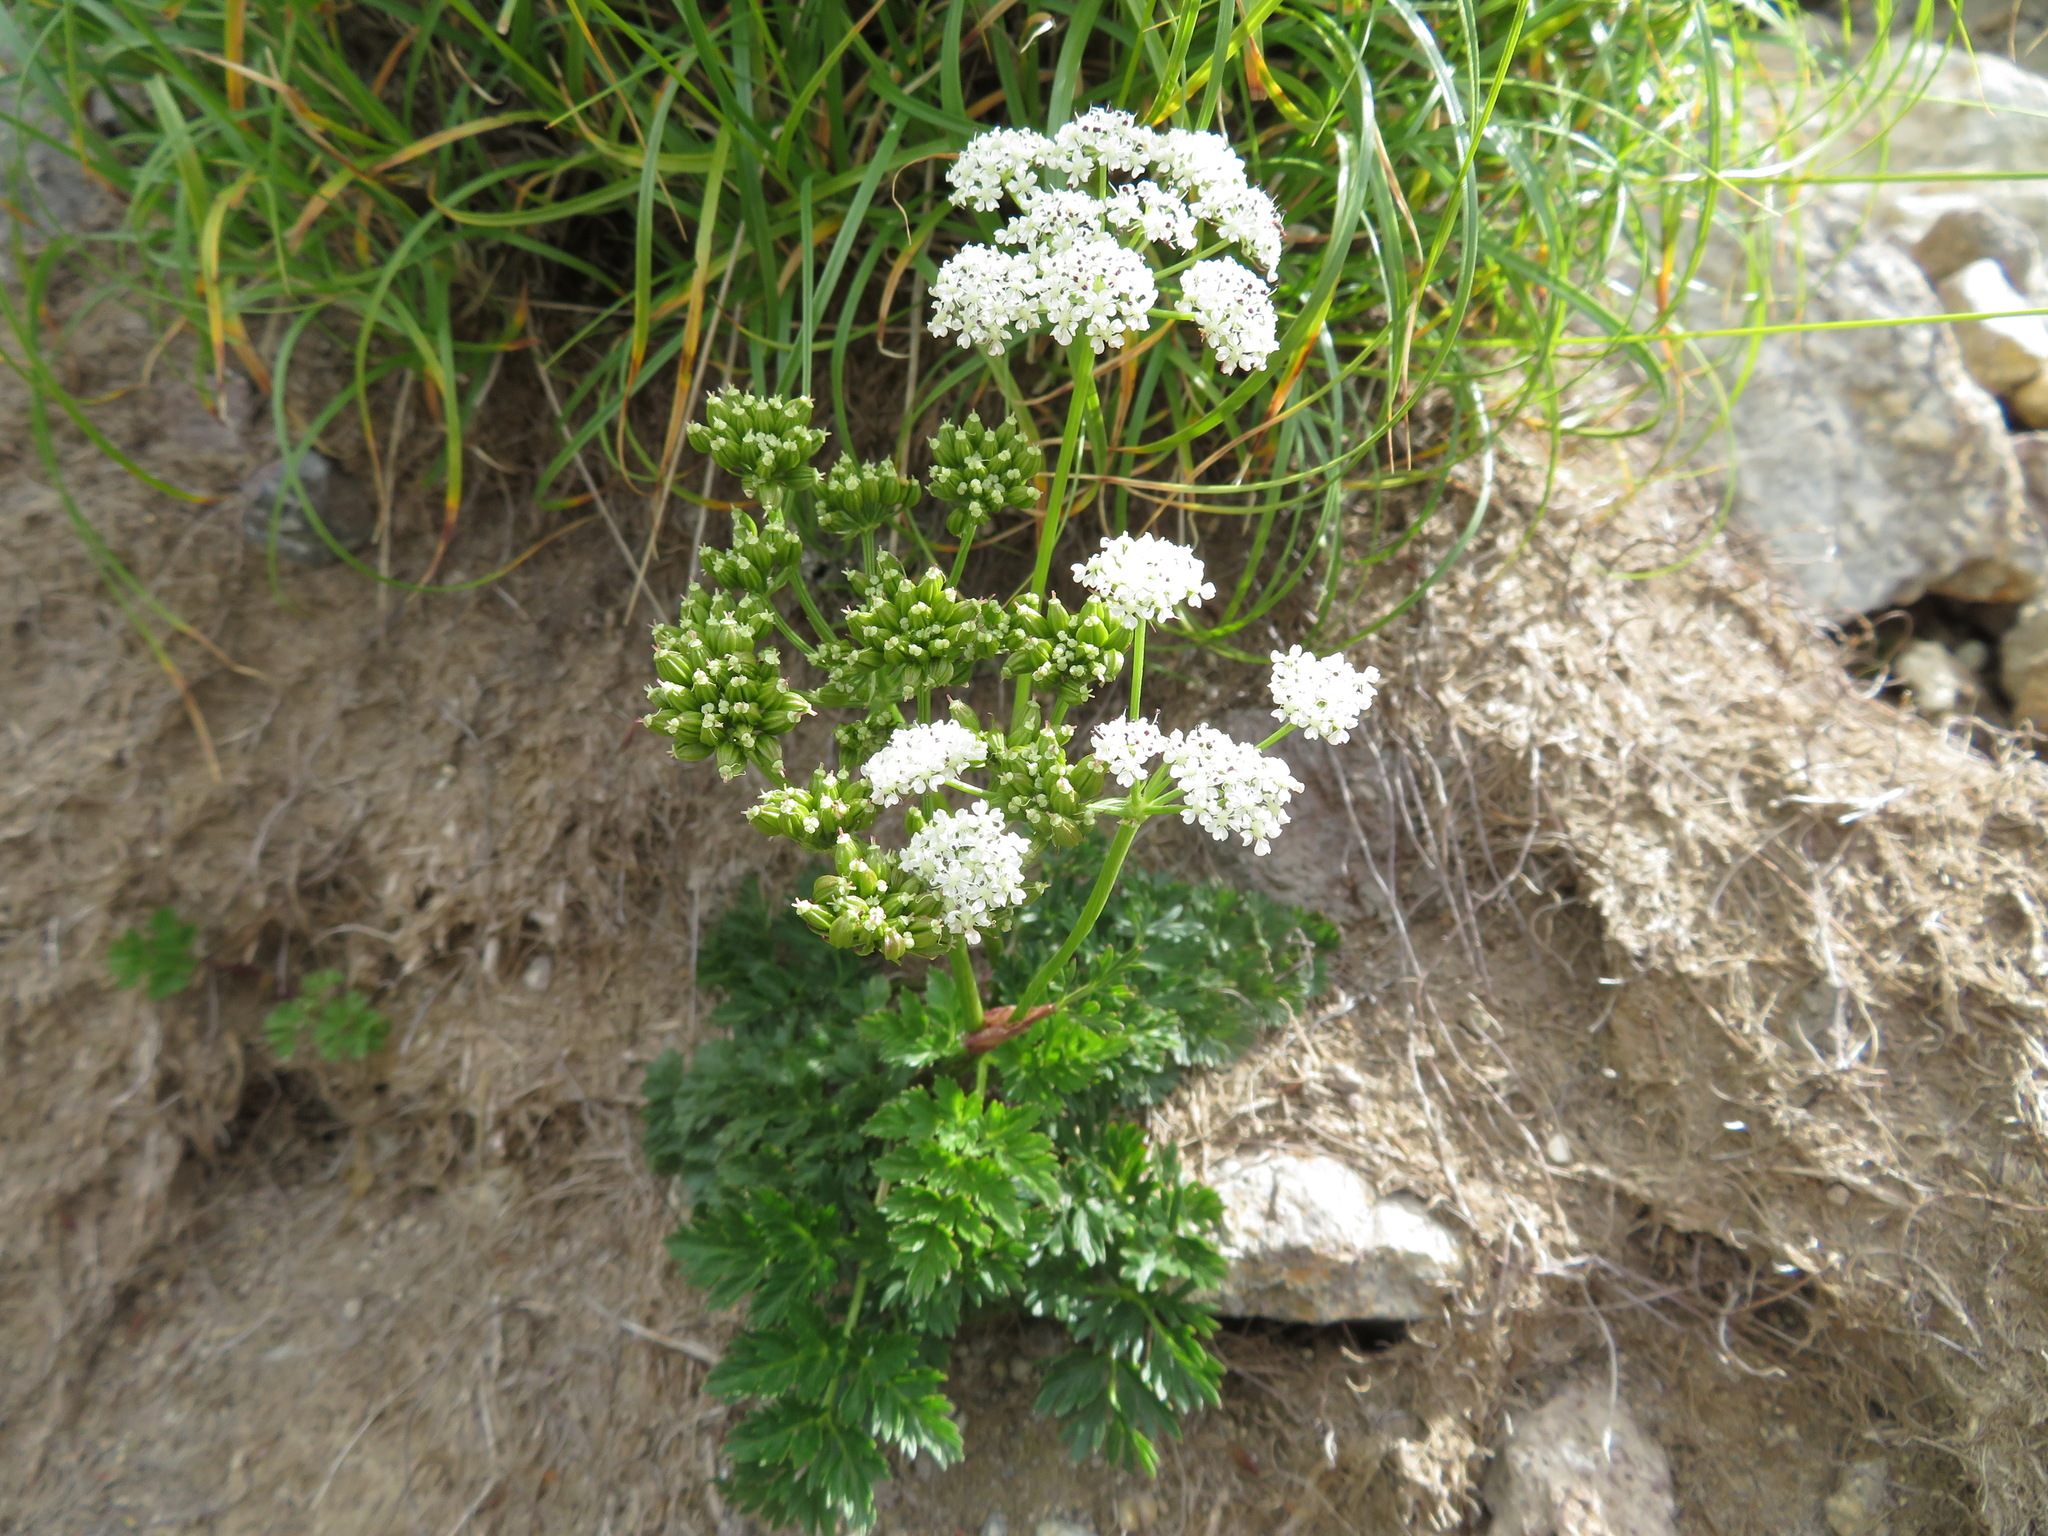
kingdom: Plantae
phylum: Tracheophyta
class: Magnoliopsida
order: Apiales
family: Apiaceae
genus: Tilingia
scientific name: Tilingia ajanensis
